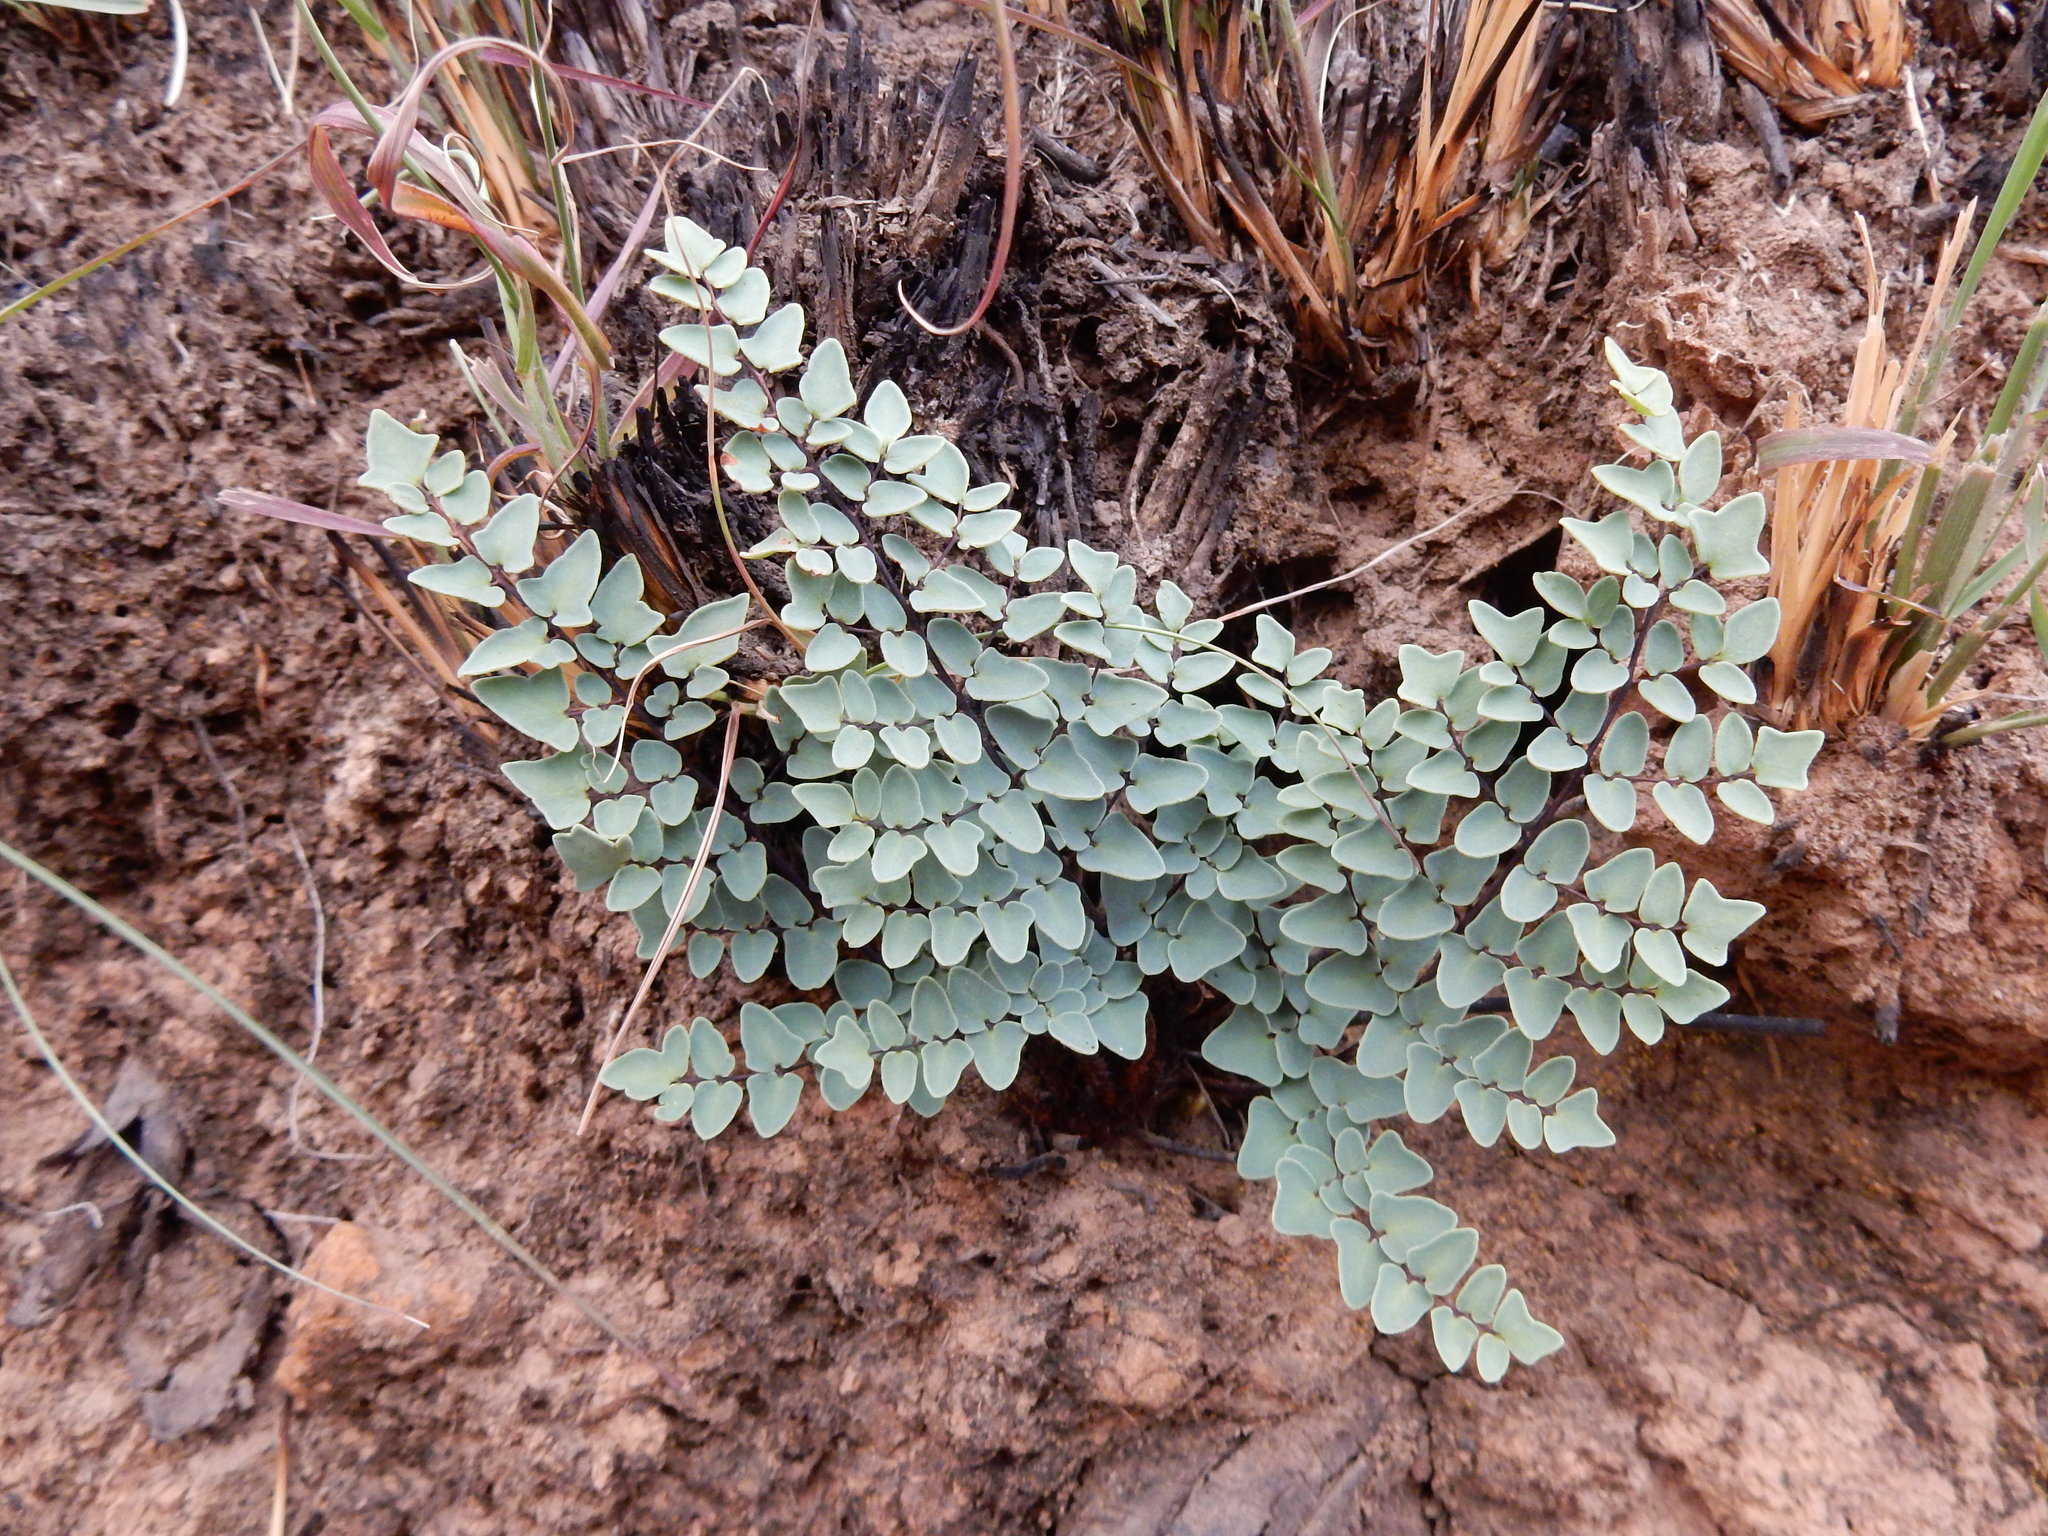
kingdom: Plantae
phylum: Tracheophyta
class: Polypodiopsida
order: Polypodiales
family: Pteridaceae
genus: Pellaea
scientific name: Pellaea calomelanos
